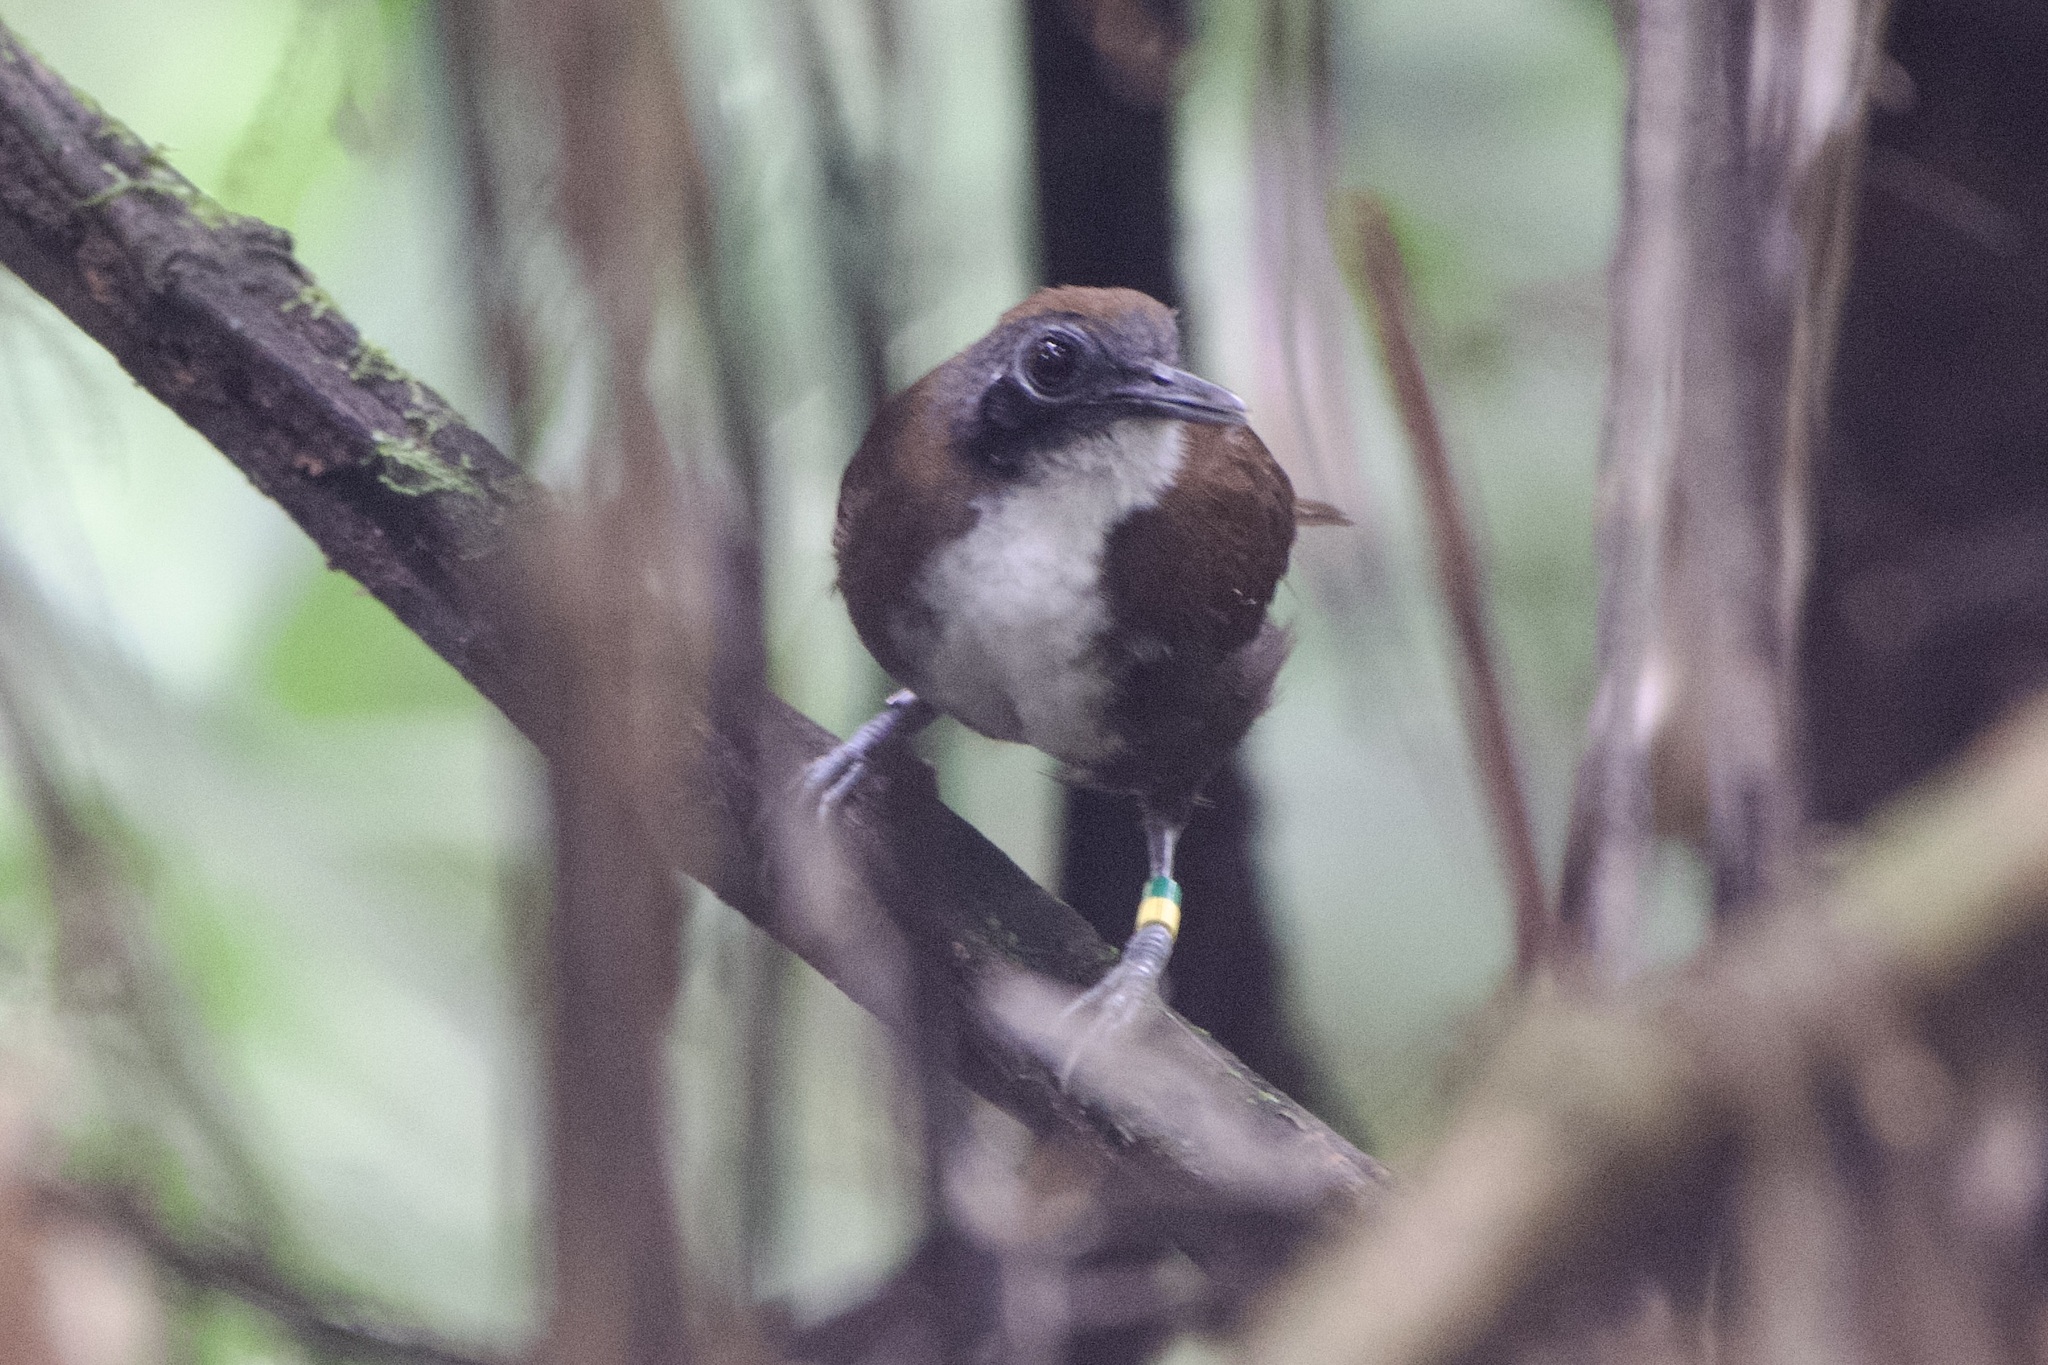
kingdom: Animalia
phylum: Chordata
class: Aves
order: Passeriformes
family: Thamnophilidae
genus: Gymnopithys
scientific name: Gymnopithys leucaspis
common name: White-cheeked antbird
